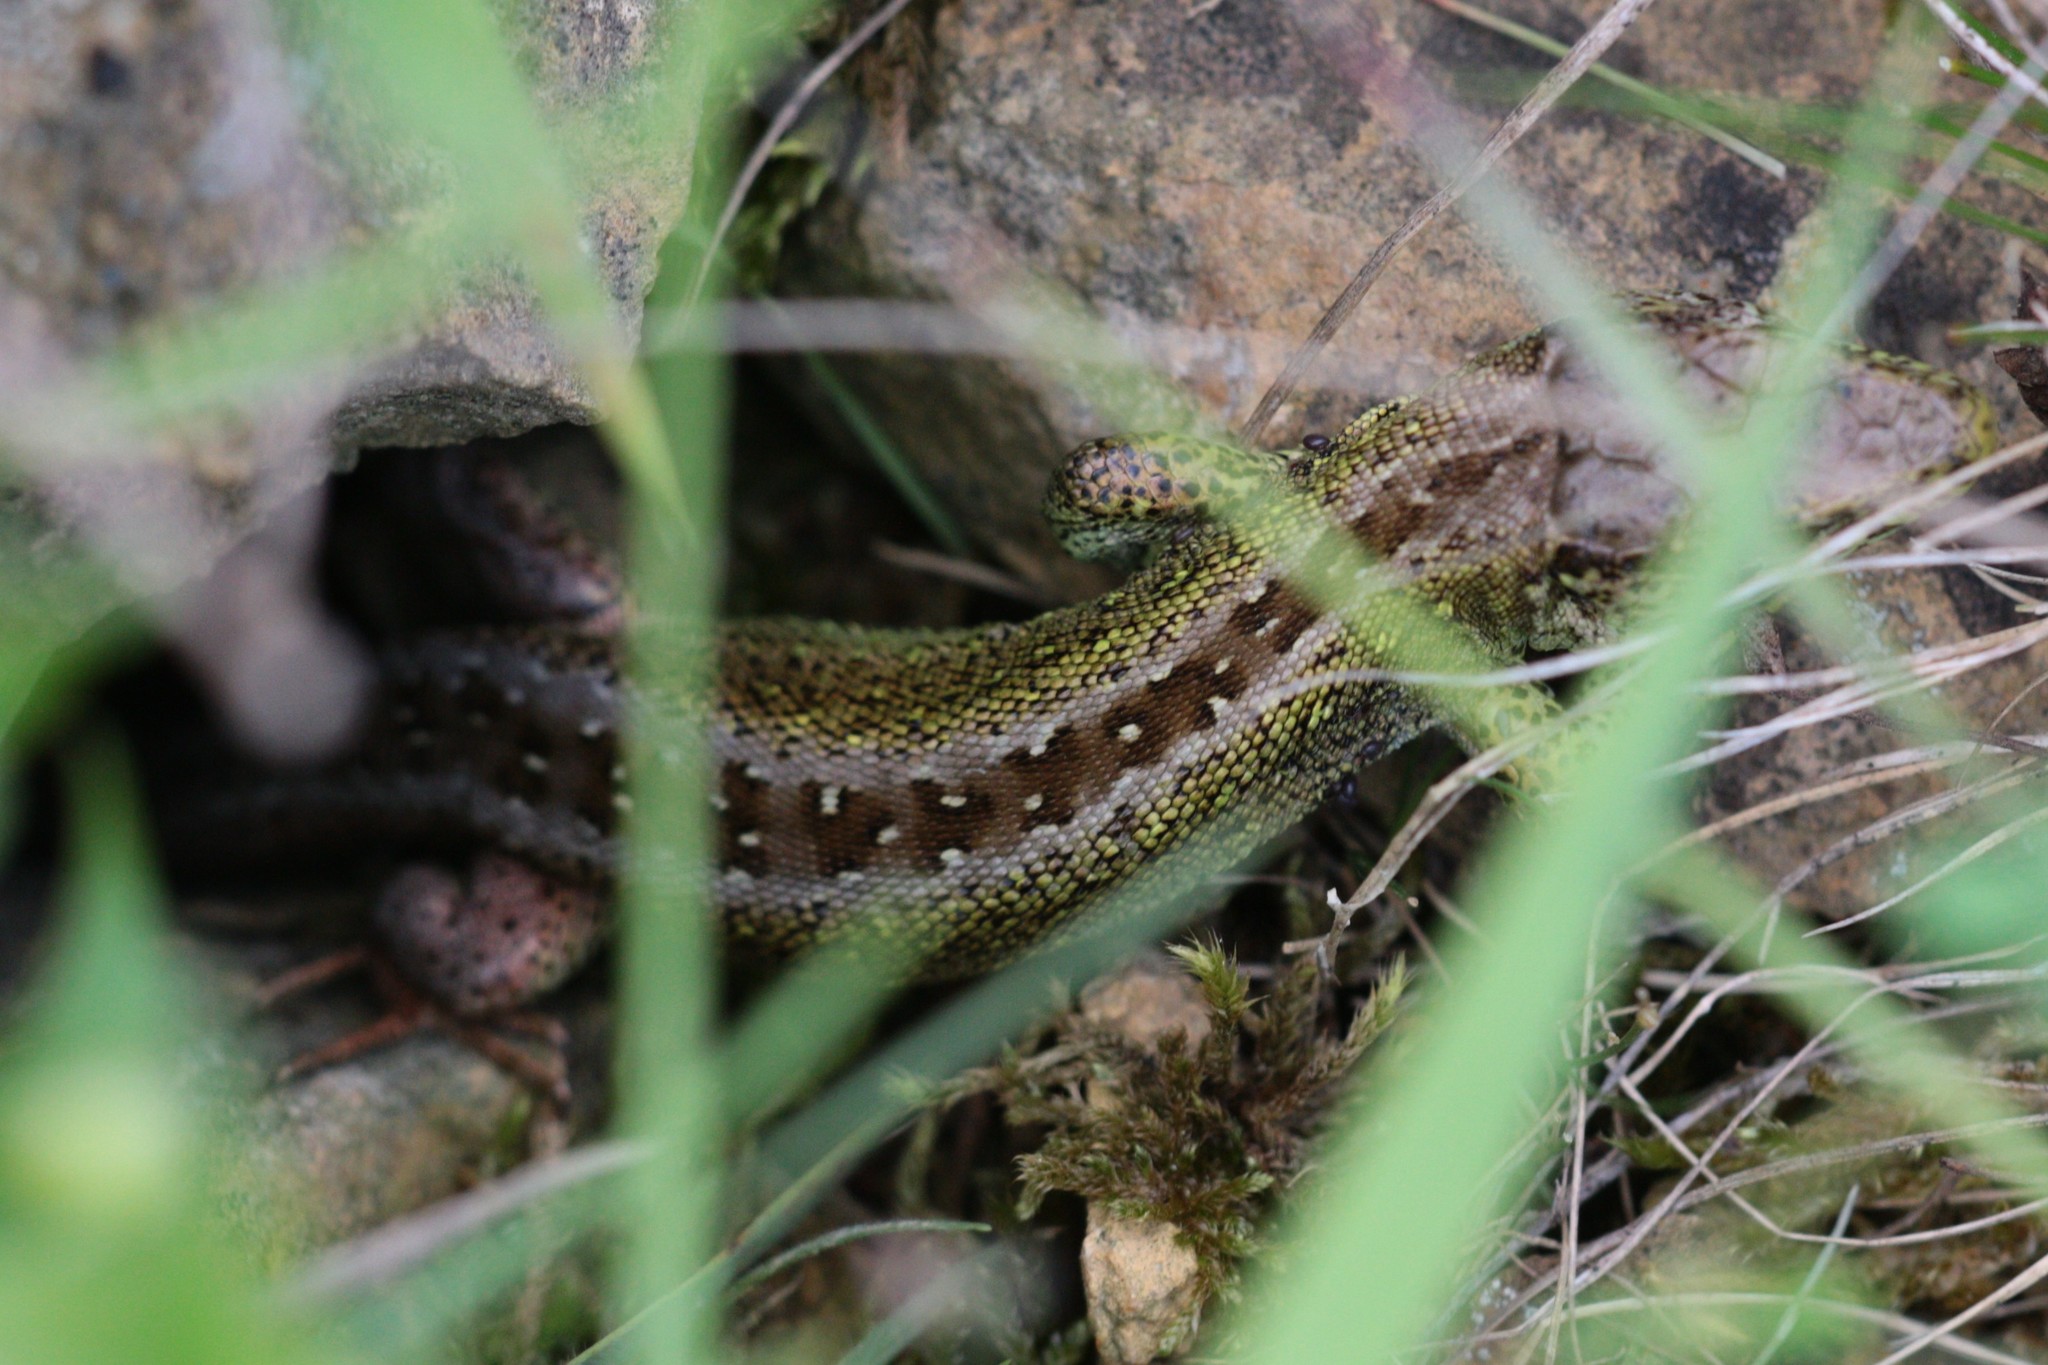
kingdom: Animalia
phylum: Chordata
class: Squamata
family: Lacertidae
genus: Lacerta
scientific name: Lacerta agilis
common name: Sand lizard
